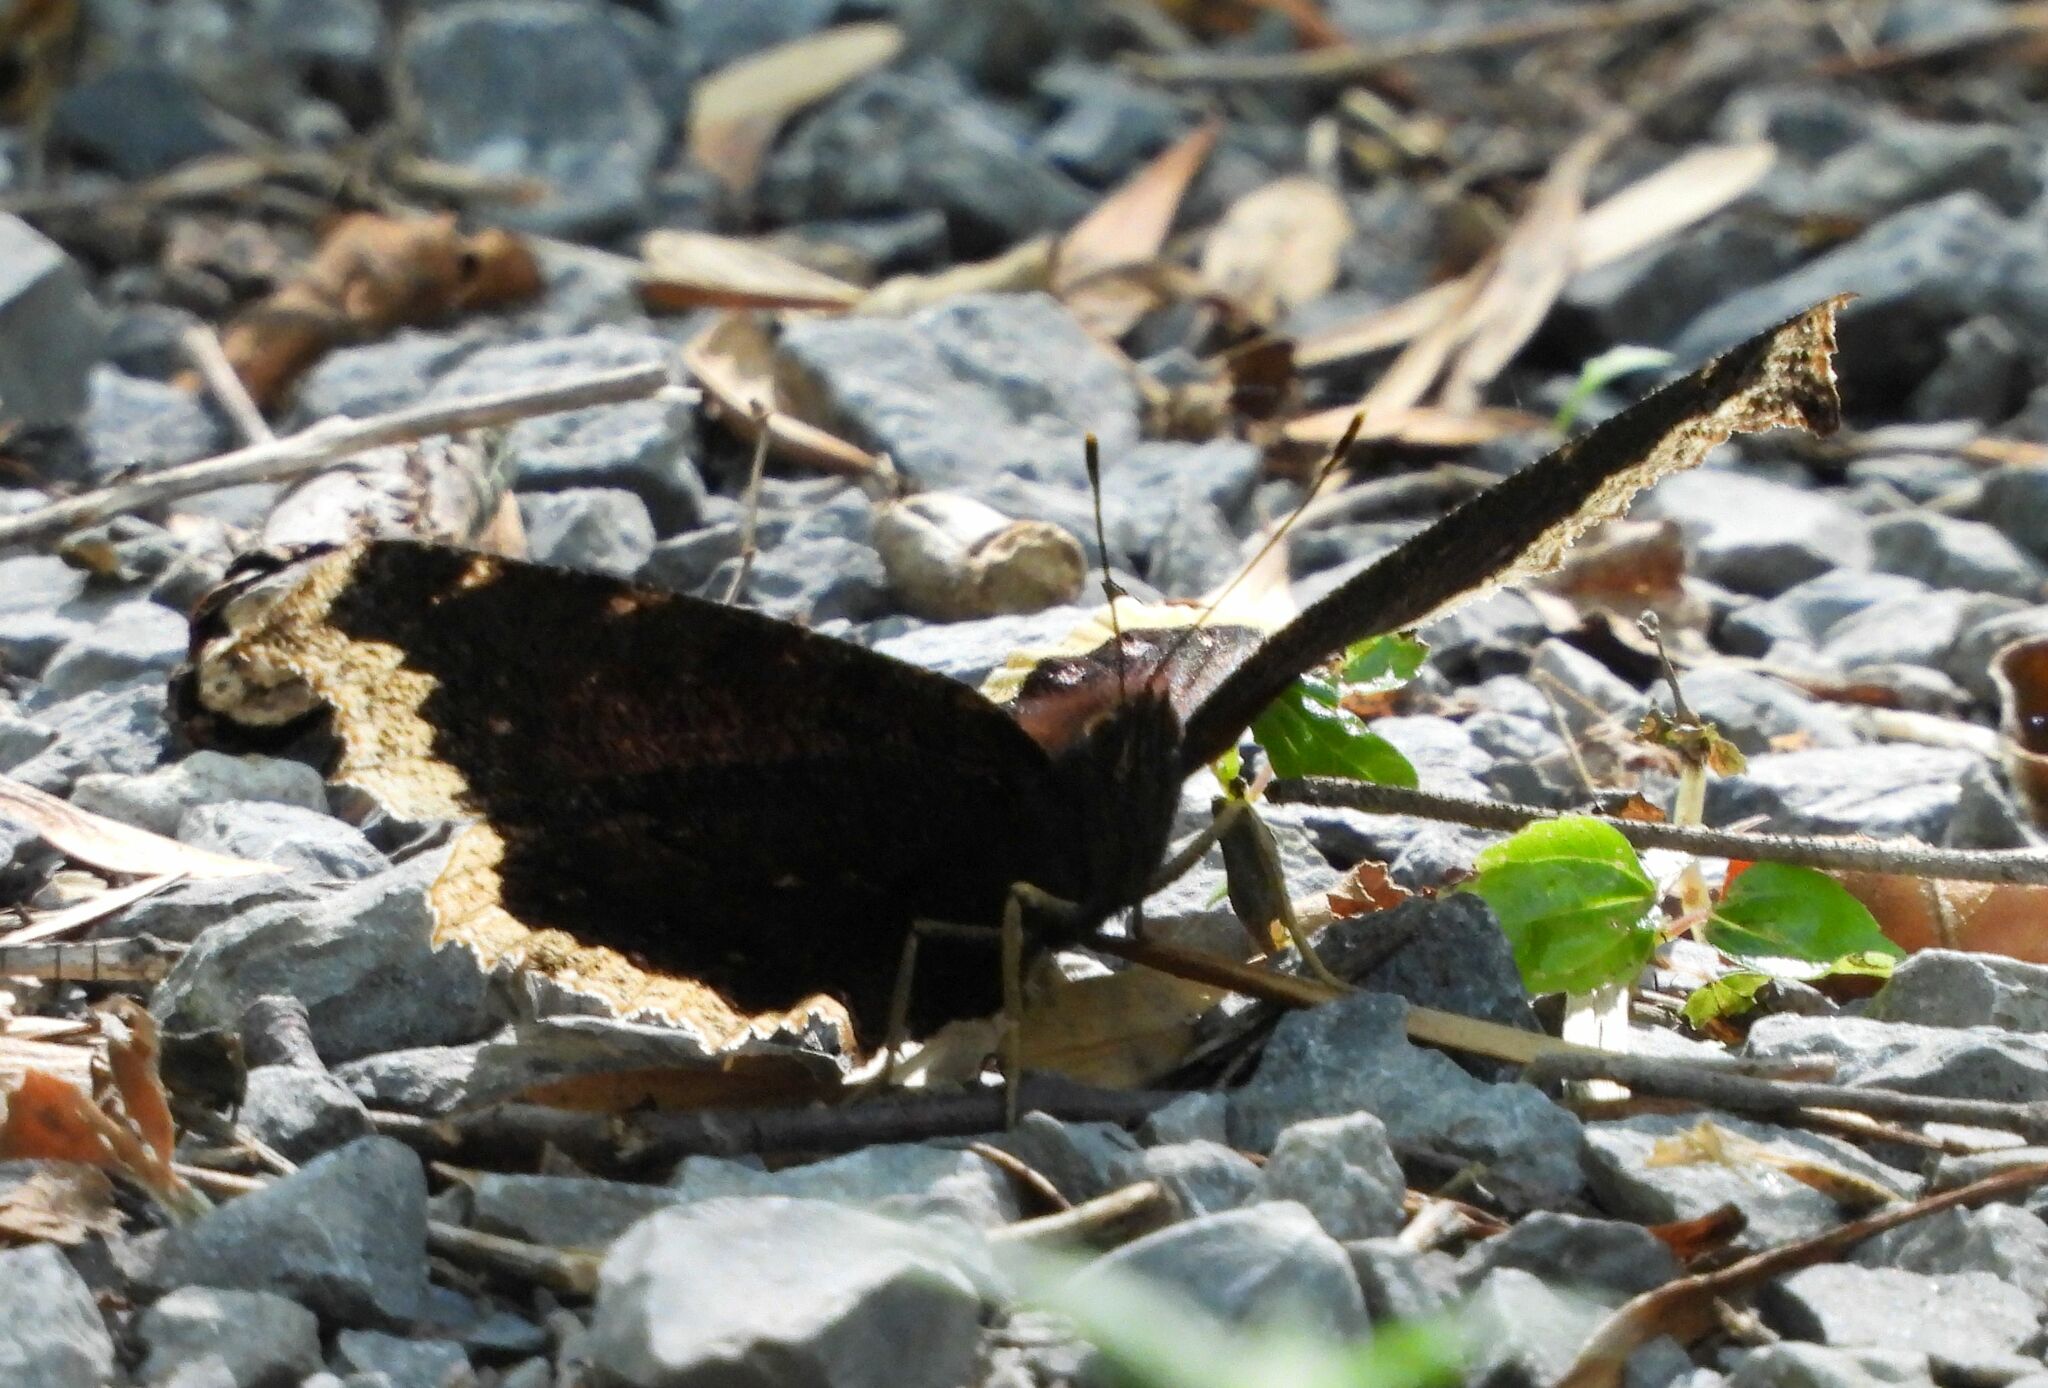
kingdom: Animalia
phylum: Arthropoda
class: Insecta
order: Lepidoptera
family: Nymphalidae
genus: Nymphalis
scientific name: Nymphalis antiopa
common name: Camberwell beauty
